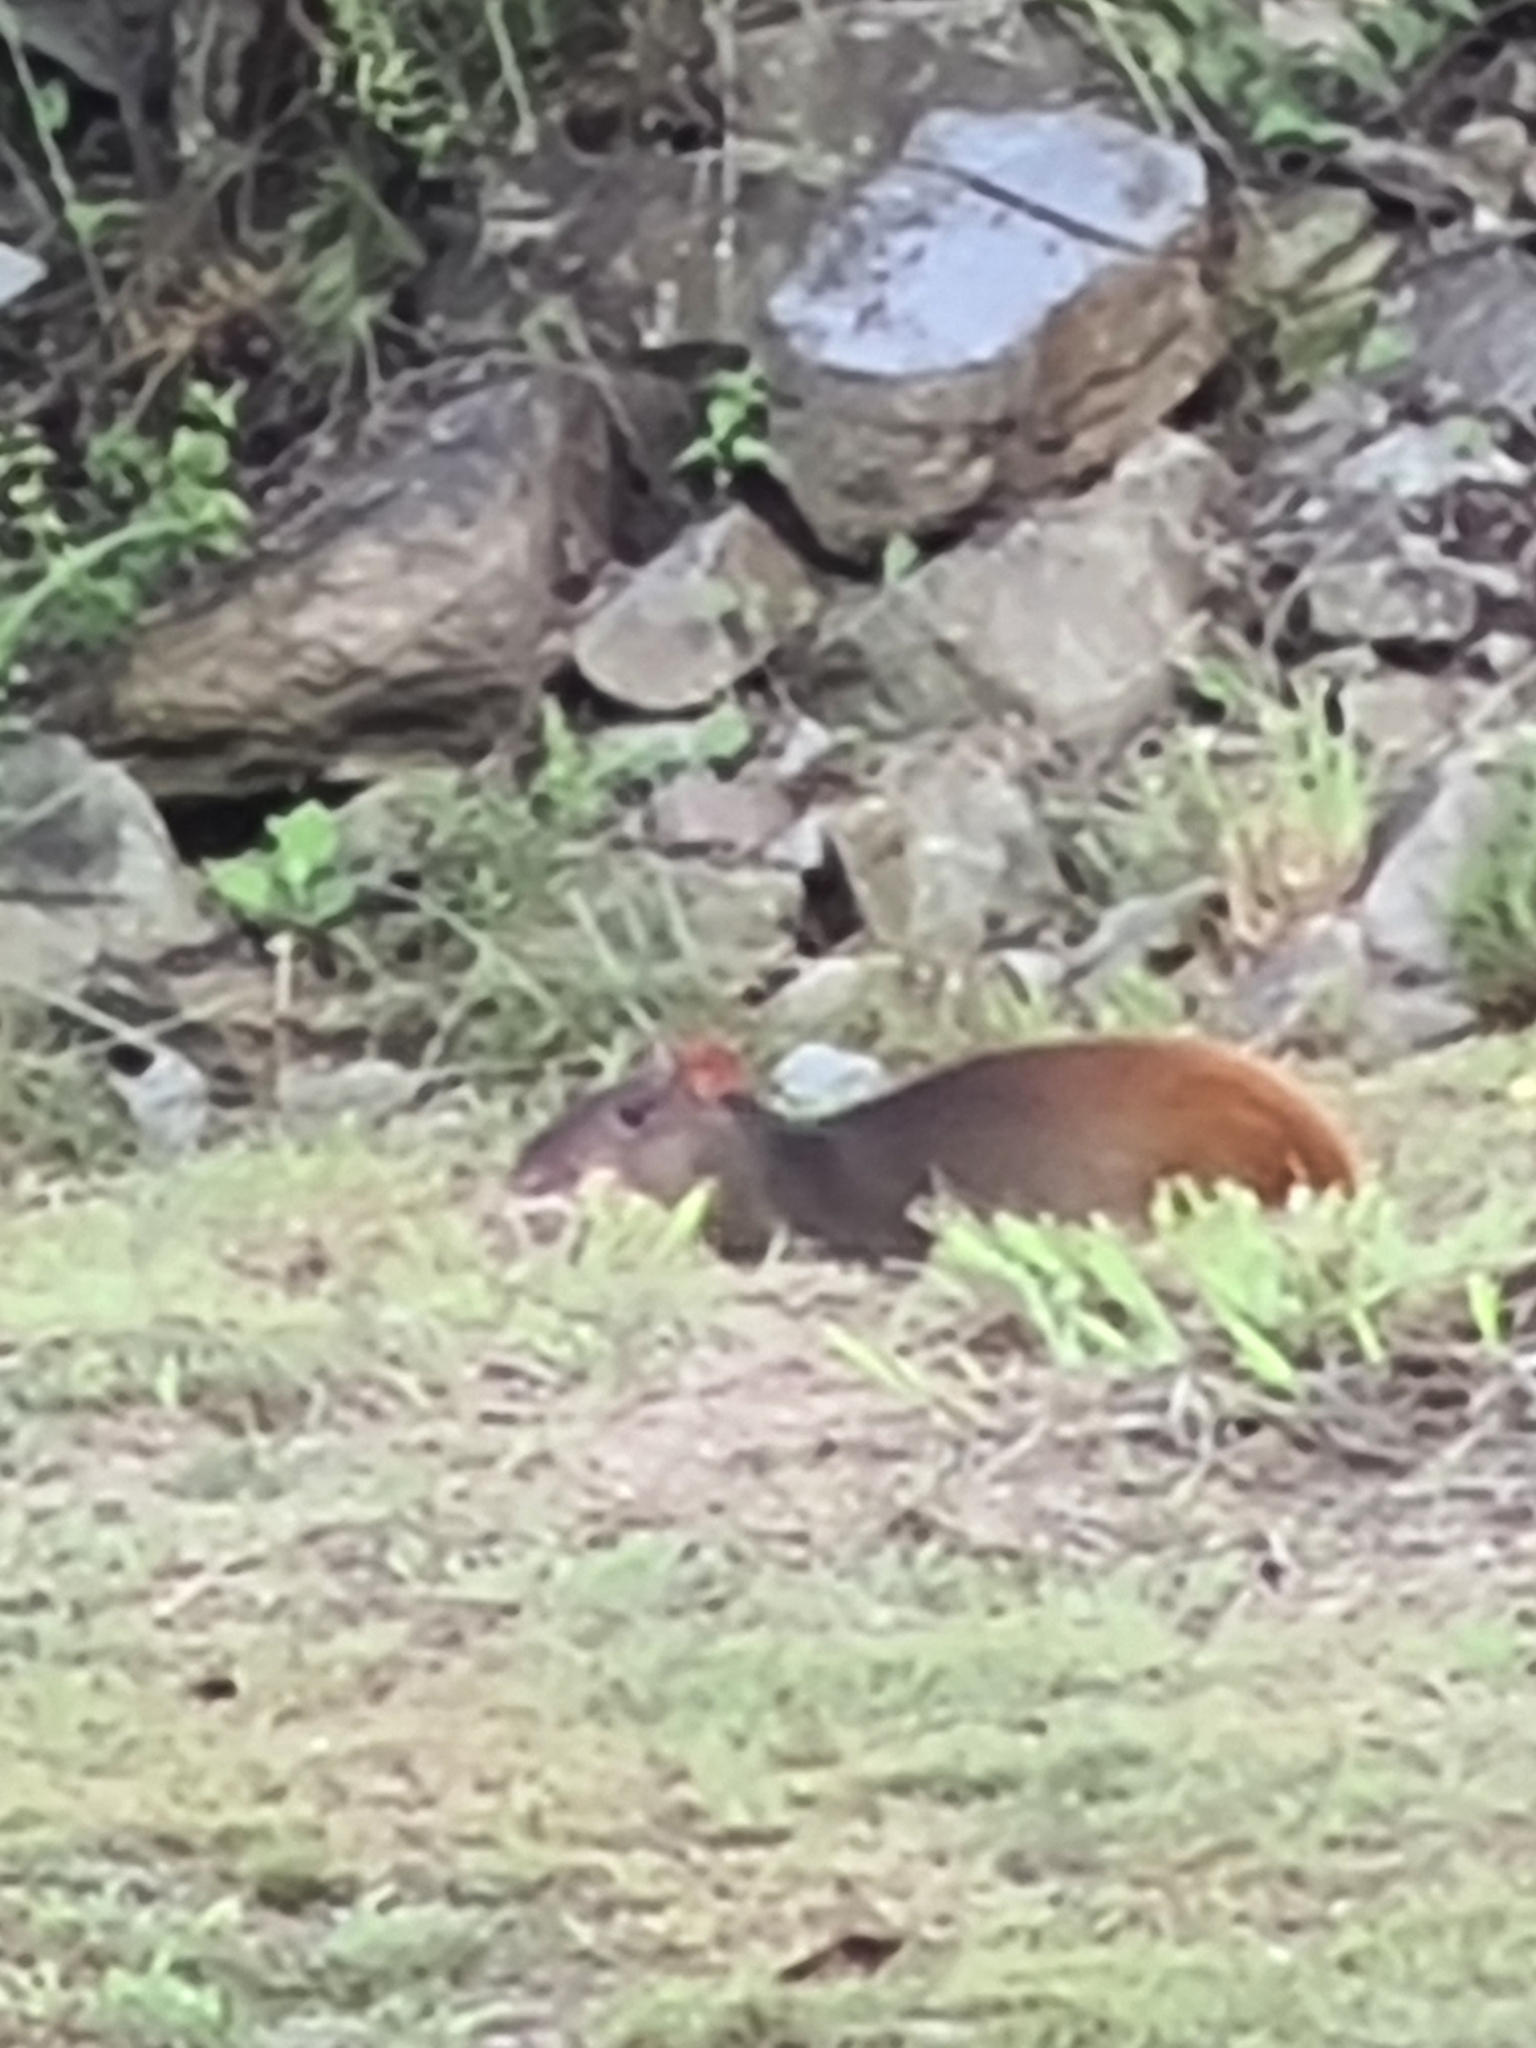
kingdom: Animalia
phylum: Chordata
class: Mammalia
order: Rodentia
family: Dasyproctidae
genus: Dasyprocta
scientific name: Dasyprocta leporina
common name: Red-rumped agouti
